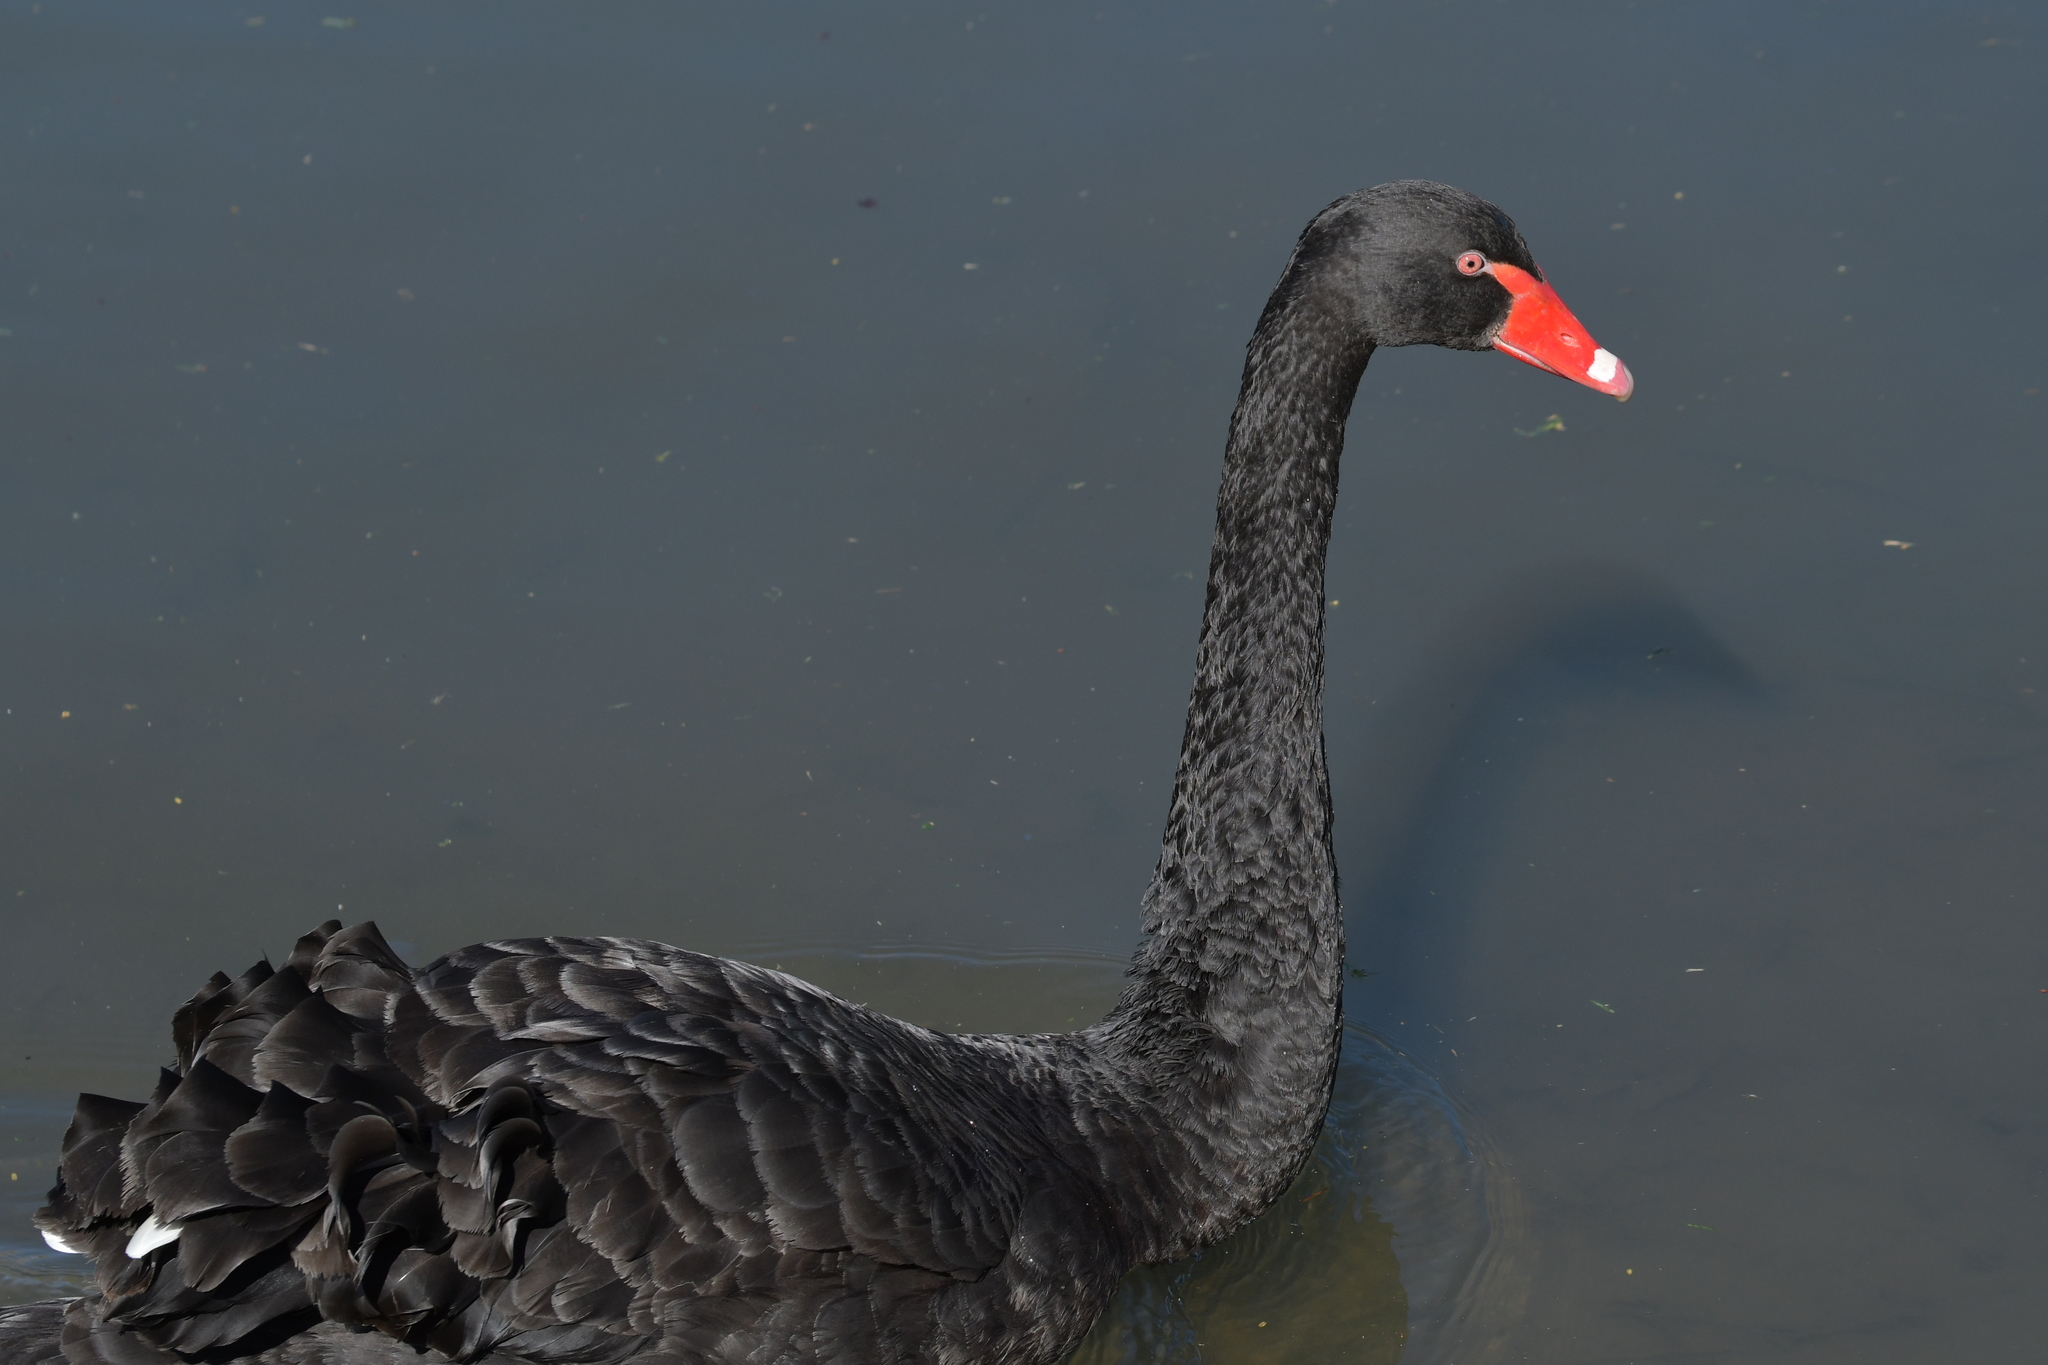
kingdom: Animalia
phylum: Chordata
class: Aves
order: Anseriformes
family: Anatidae
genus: Cygnus
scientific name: Cygnus atratus
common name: Black swan
